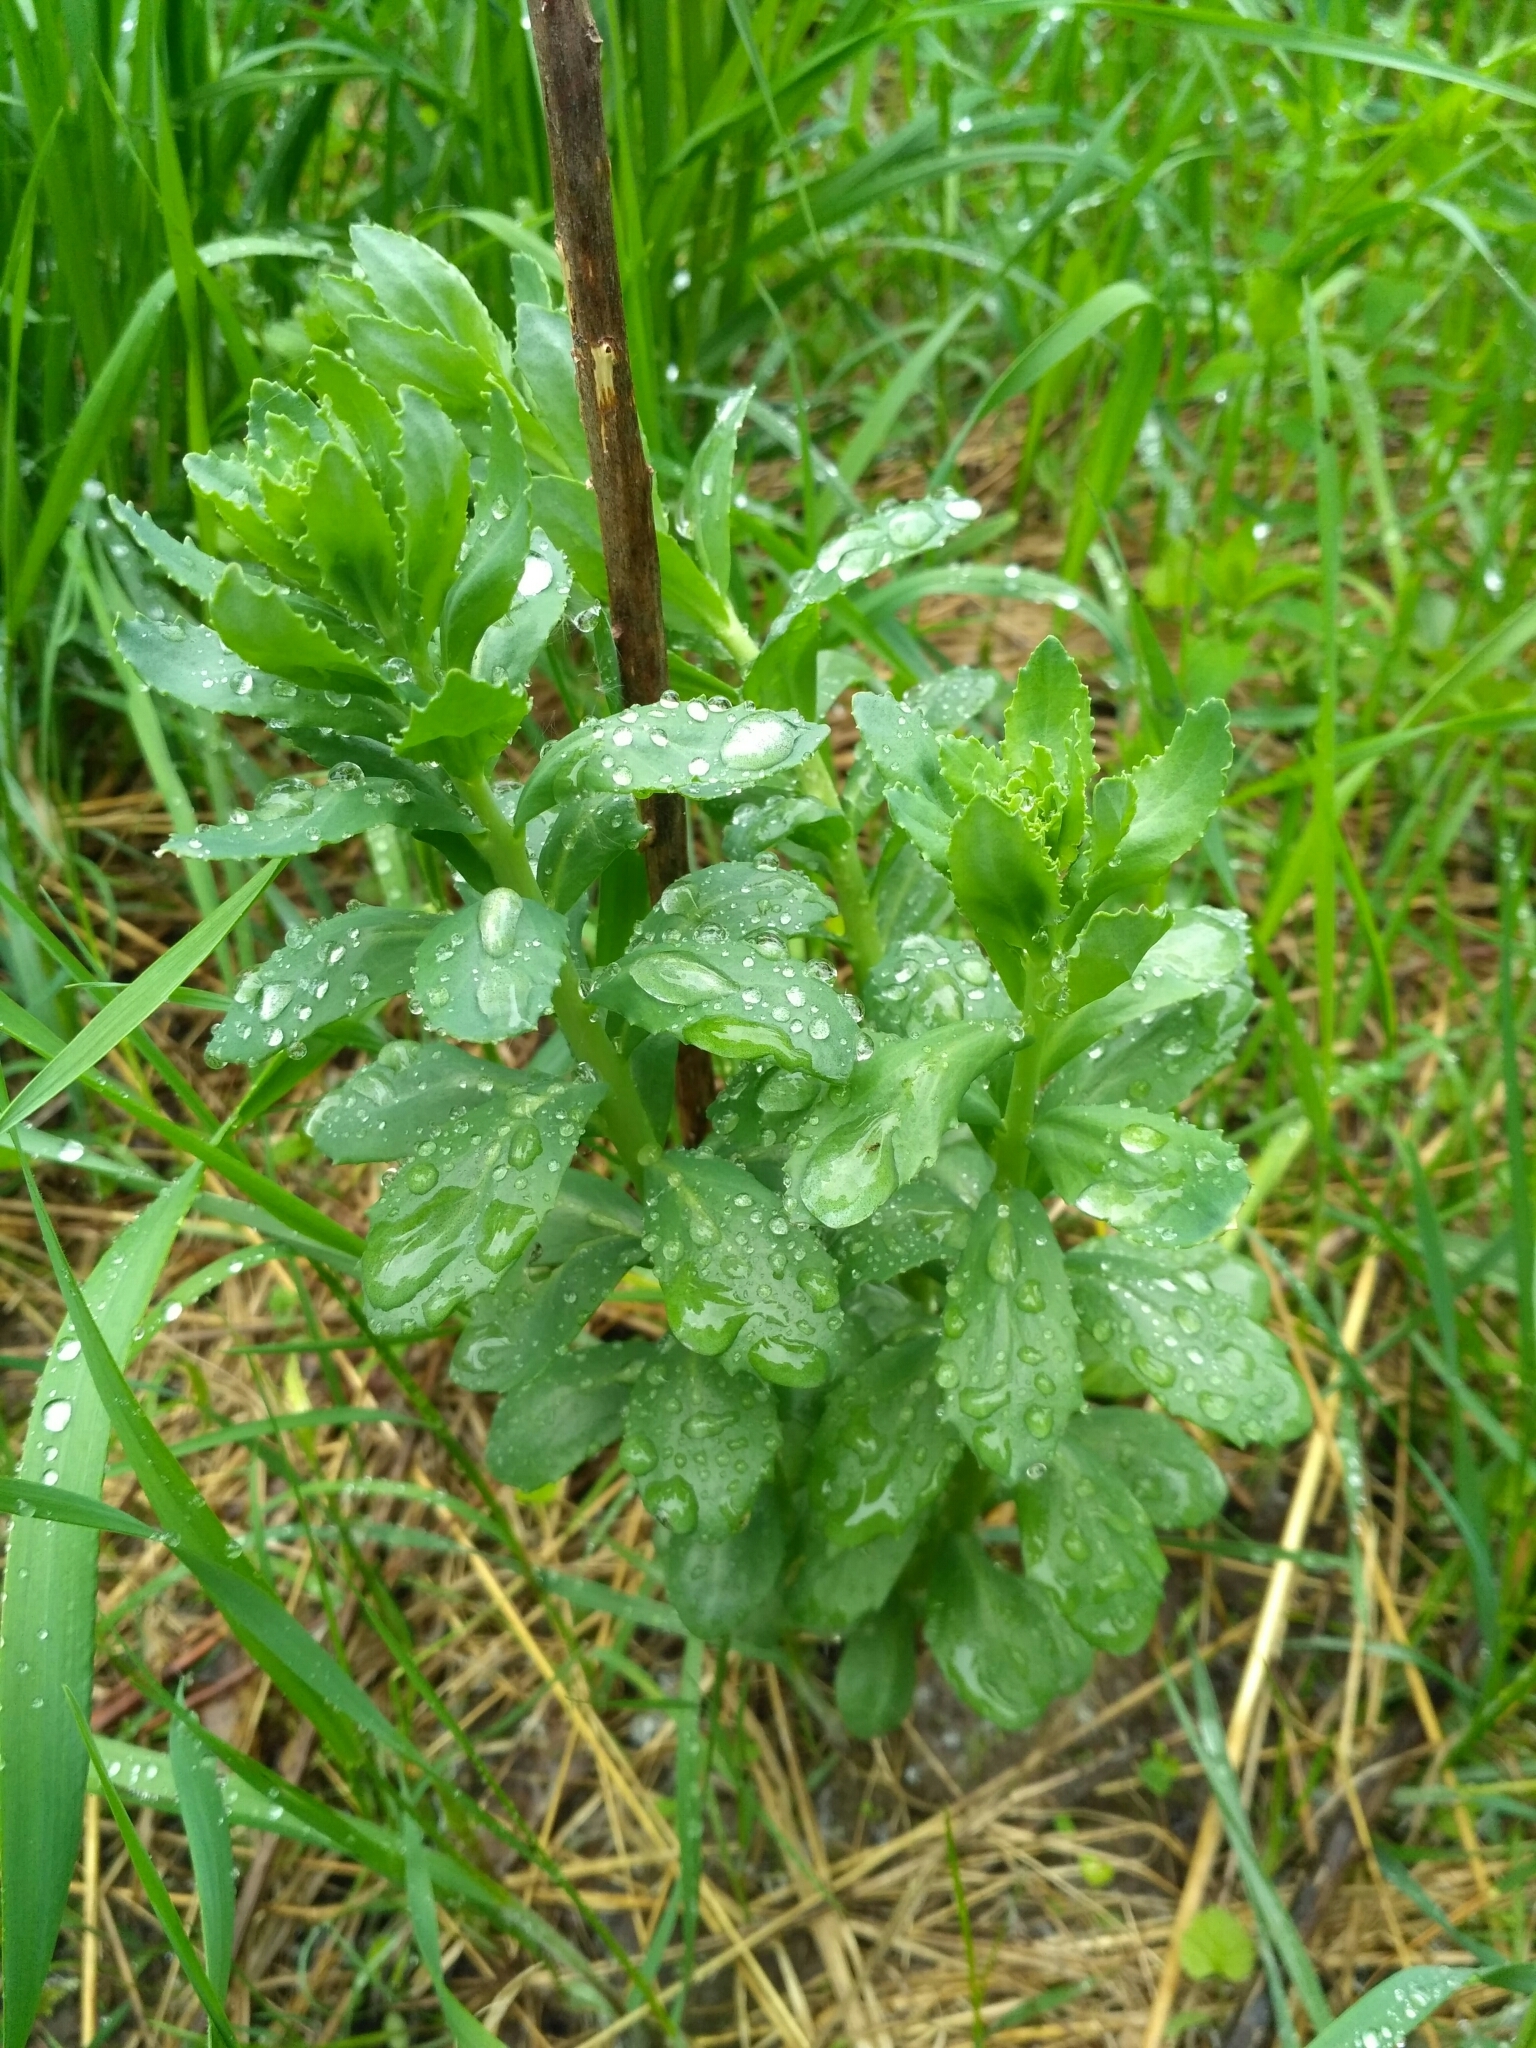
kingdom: Plantae
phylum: Tracheophyta
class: Magnoliopsida
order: Saxifragales
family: Crassulaceae
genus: Hylotelephium
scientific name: Hylotelephium telephium
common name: Live-forever
